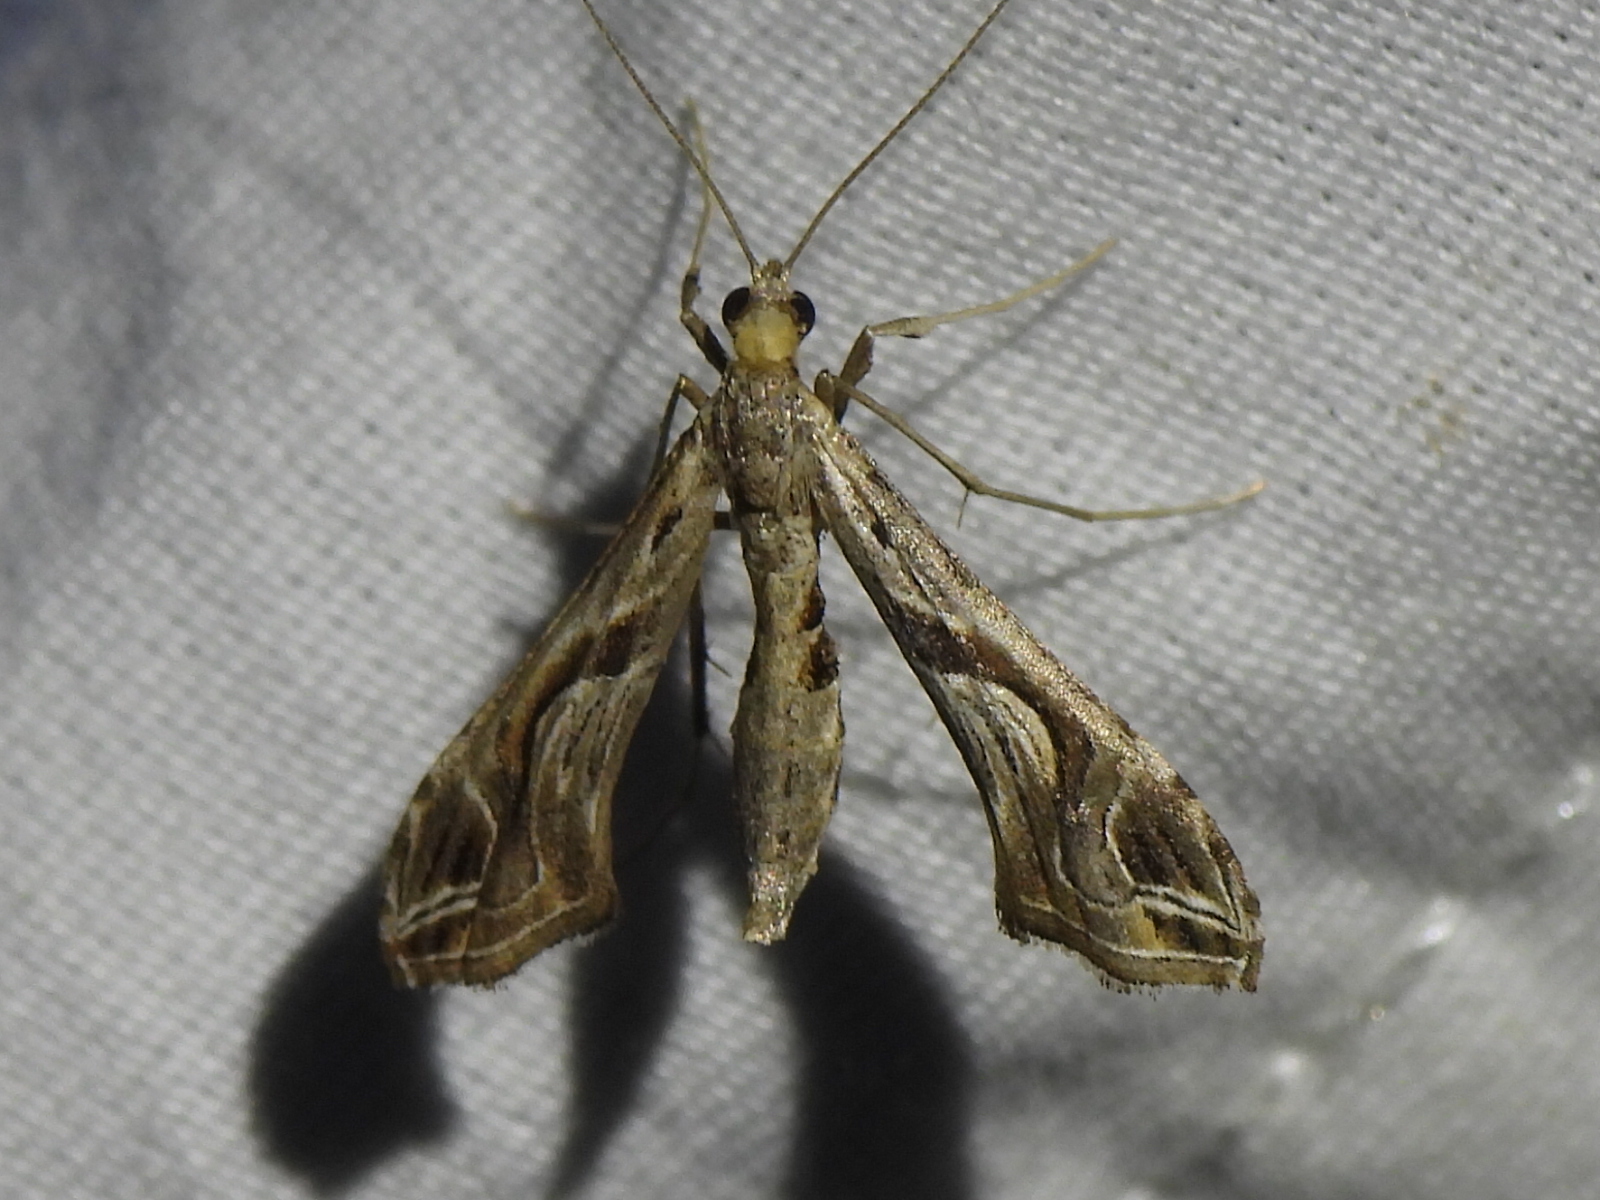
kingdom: Animalia
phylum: Arthropoda
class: Insecta
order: Lepidoptera
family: Crambidae
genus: Lineodes
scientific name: Lineodes integra
